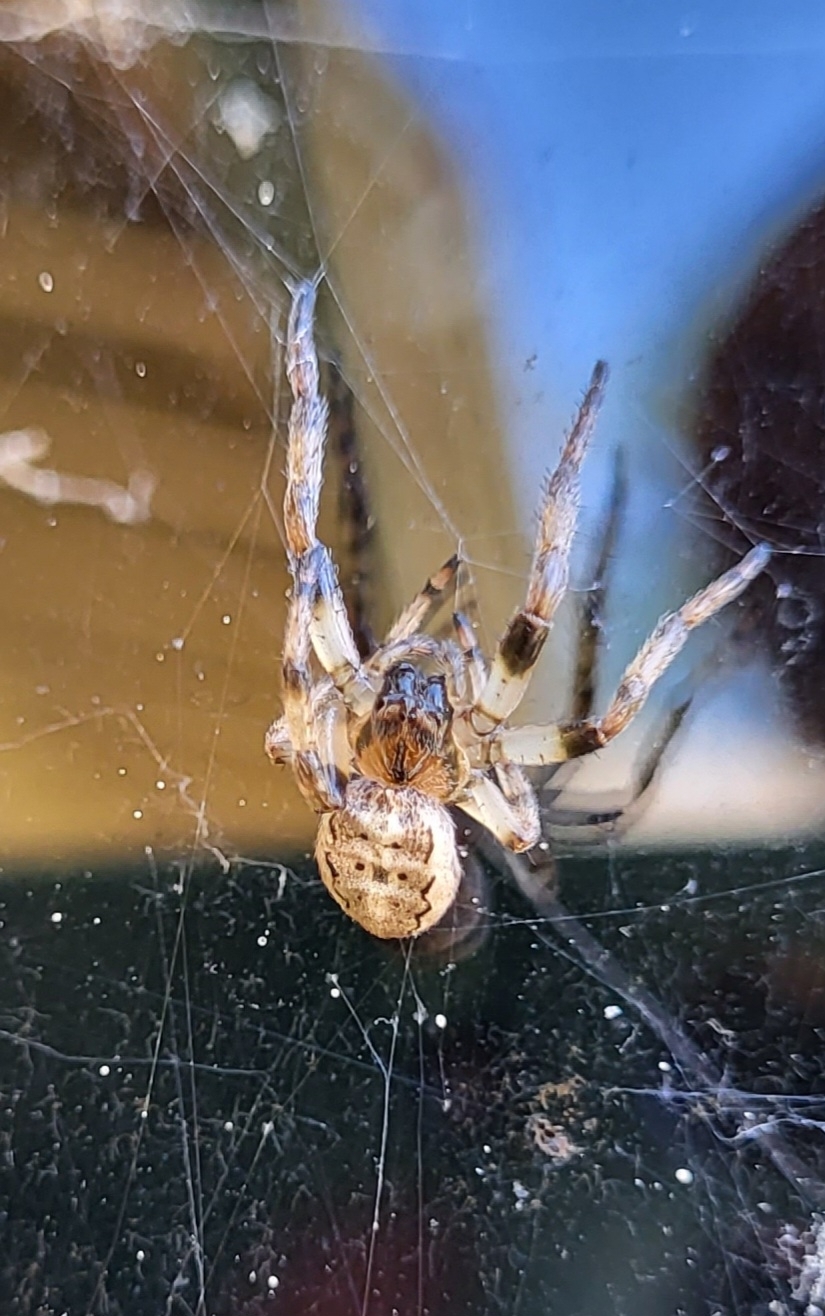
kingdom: Animalia
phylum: Arthropoda
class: Arachnida
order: Araneae
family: Araneidae
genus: Larinioides
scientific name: Larinioides cornutus
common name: Furrow orbweaver
